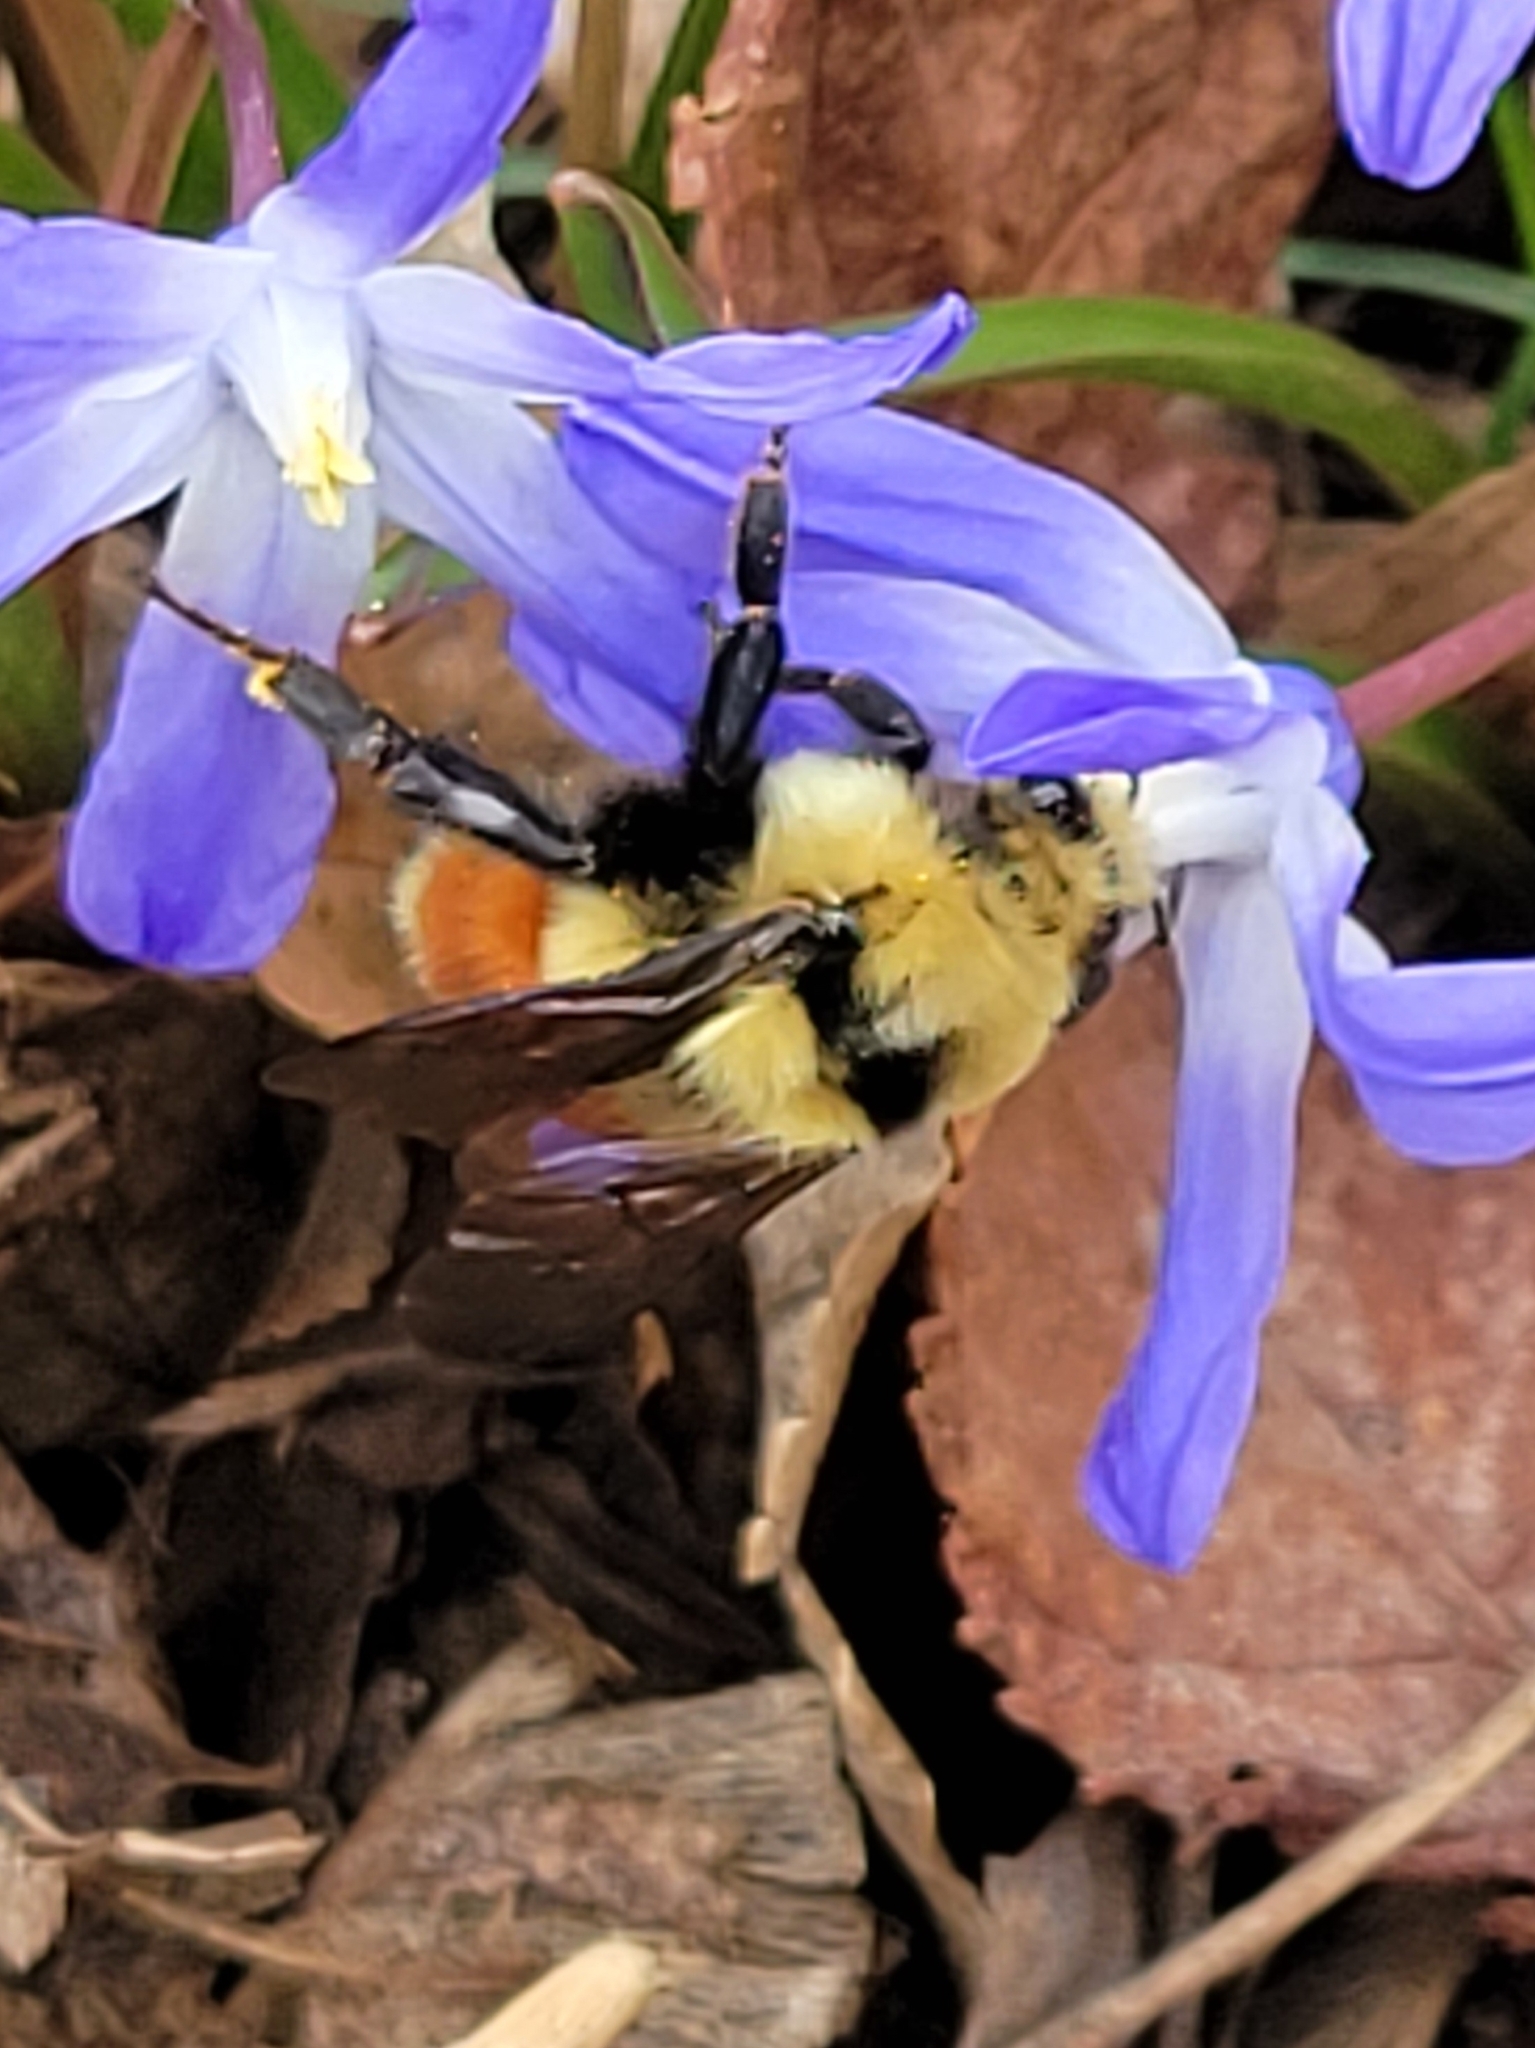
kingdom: Animalia
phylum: Arthropoda
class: Insecta
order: Hymenoptera
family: Apidae
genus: Bombus
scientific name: Bombus huntii
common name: Hunt bumble bee
